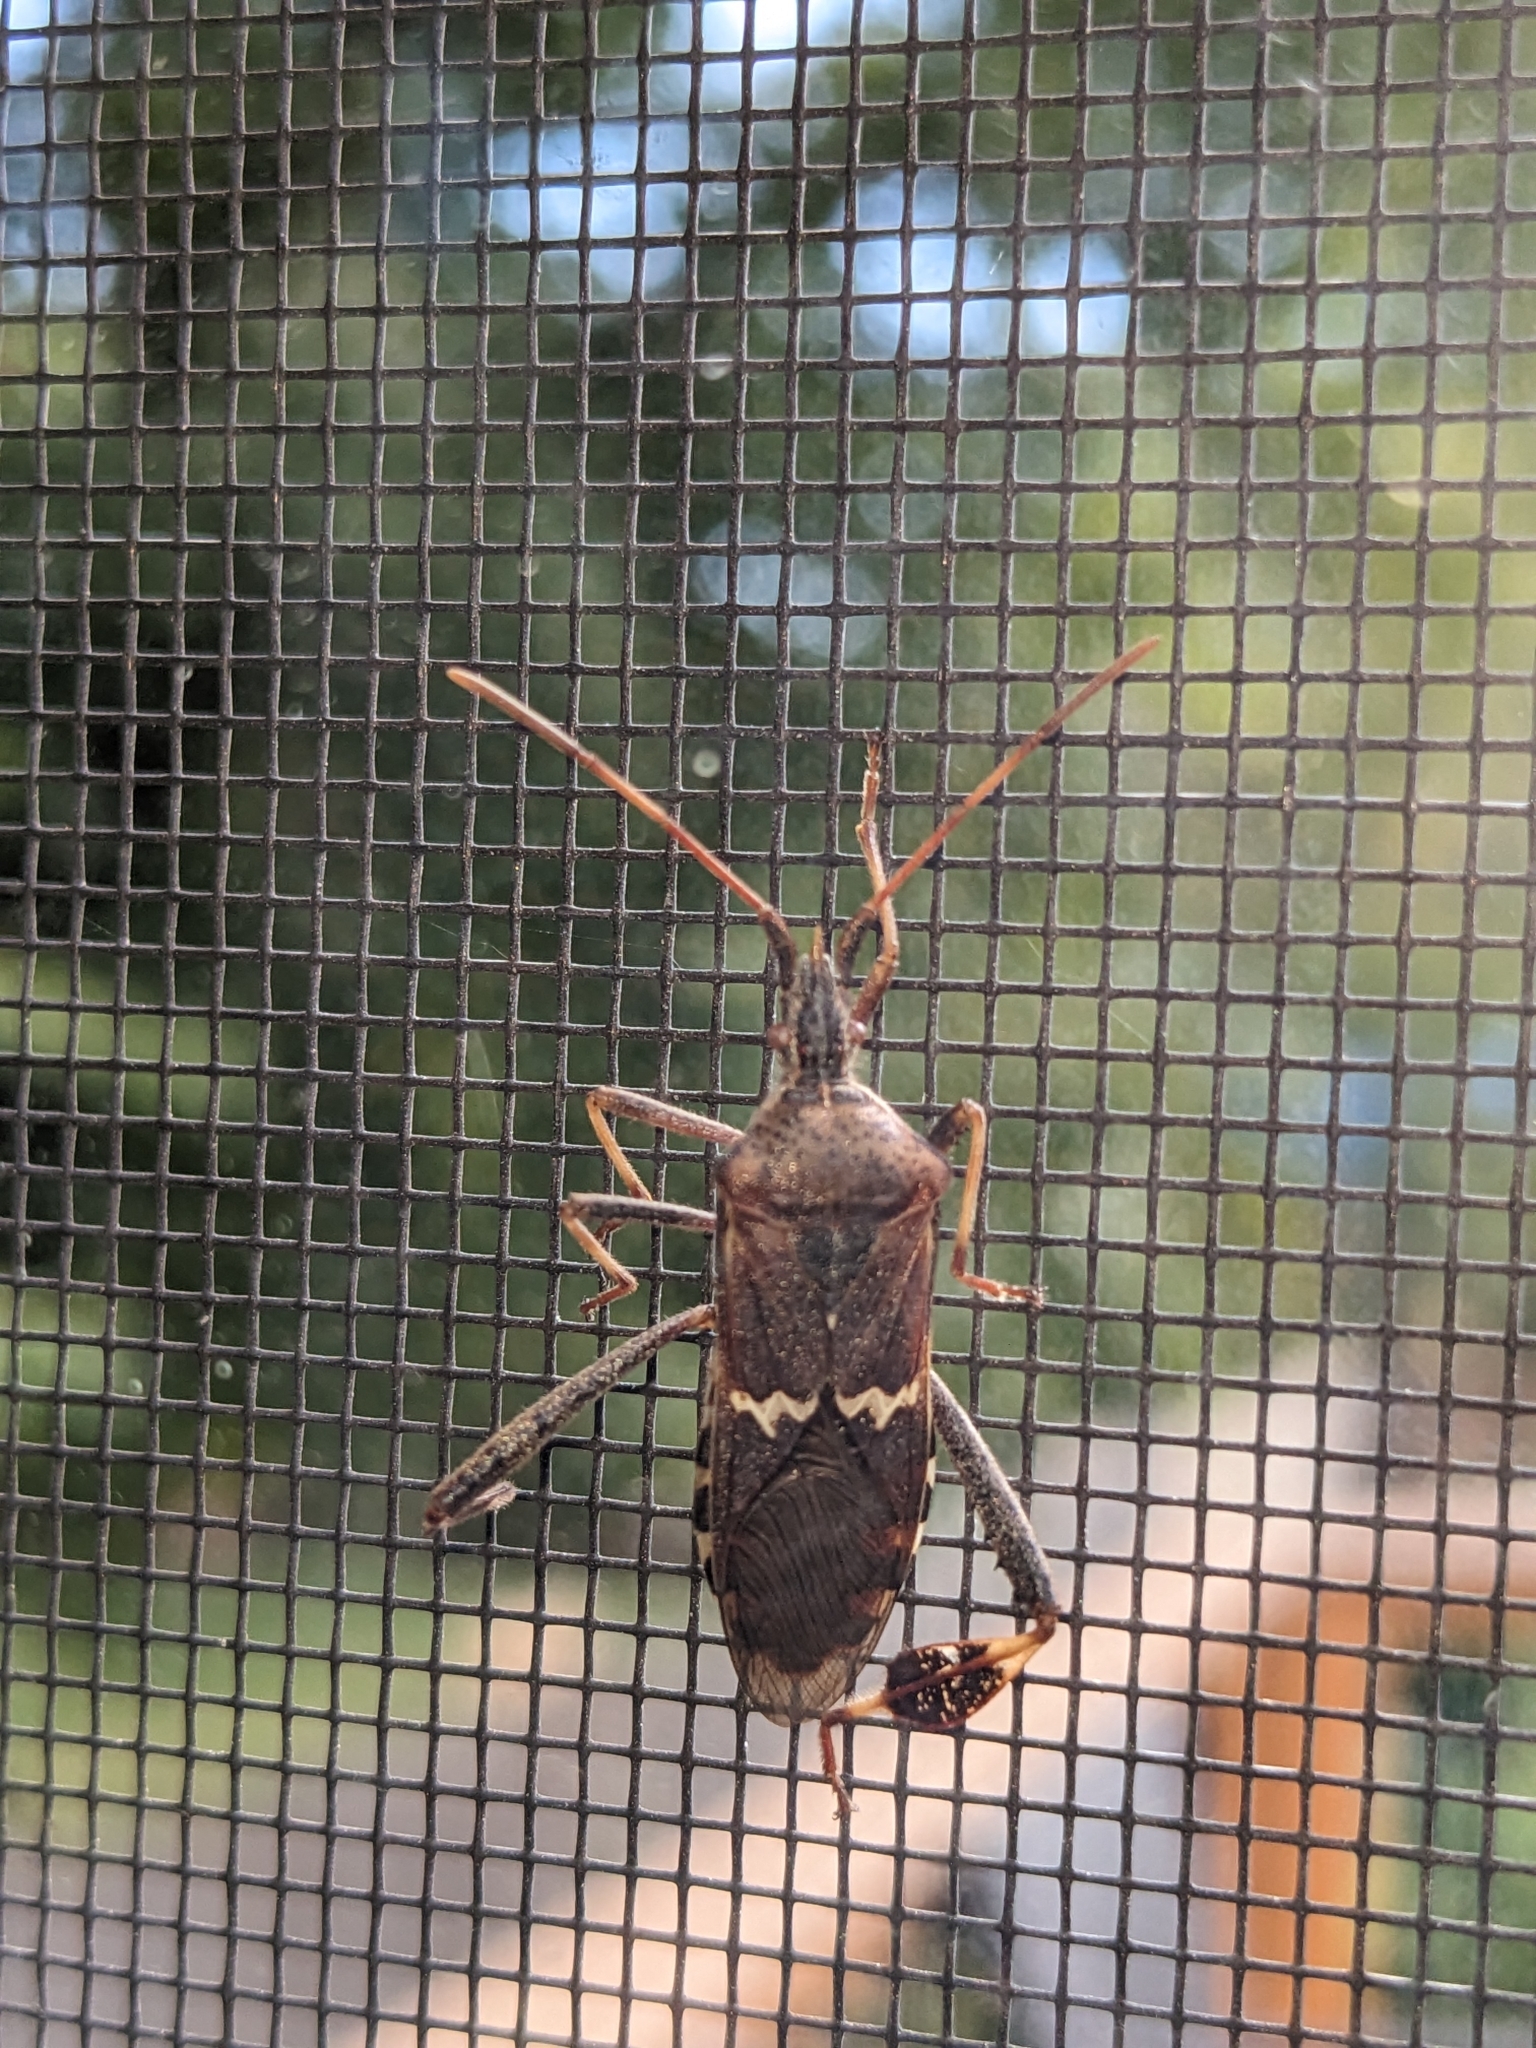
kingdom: Animalia
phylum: Arthropoda
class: Insecta
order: Hemiptera
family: Coreidae
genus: Leptoglossus
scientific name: Leptoglossus clypealis
